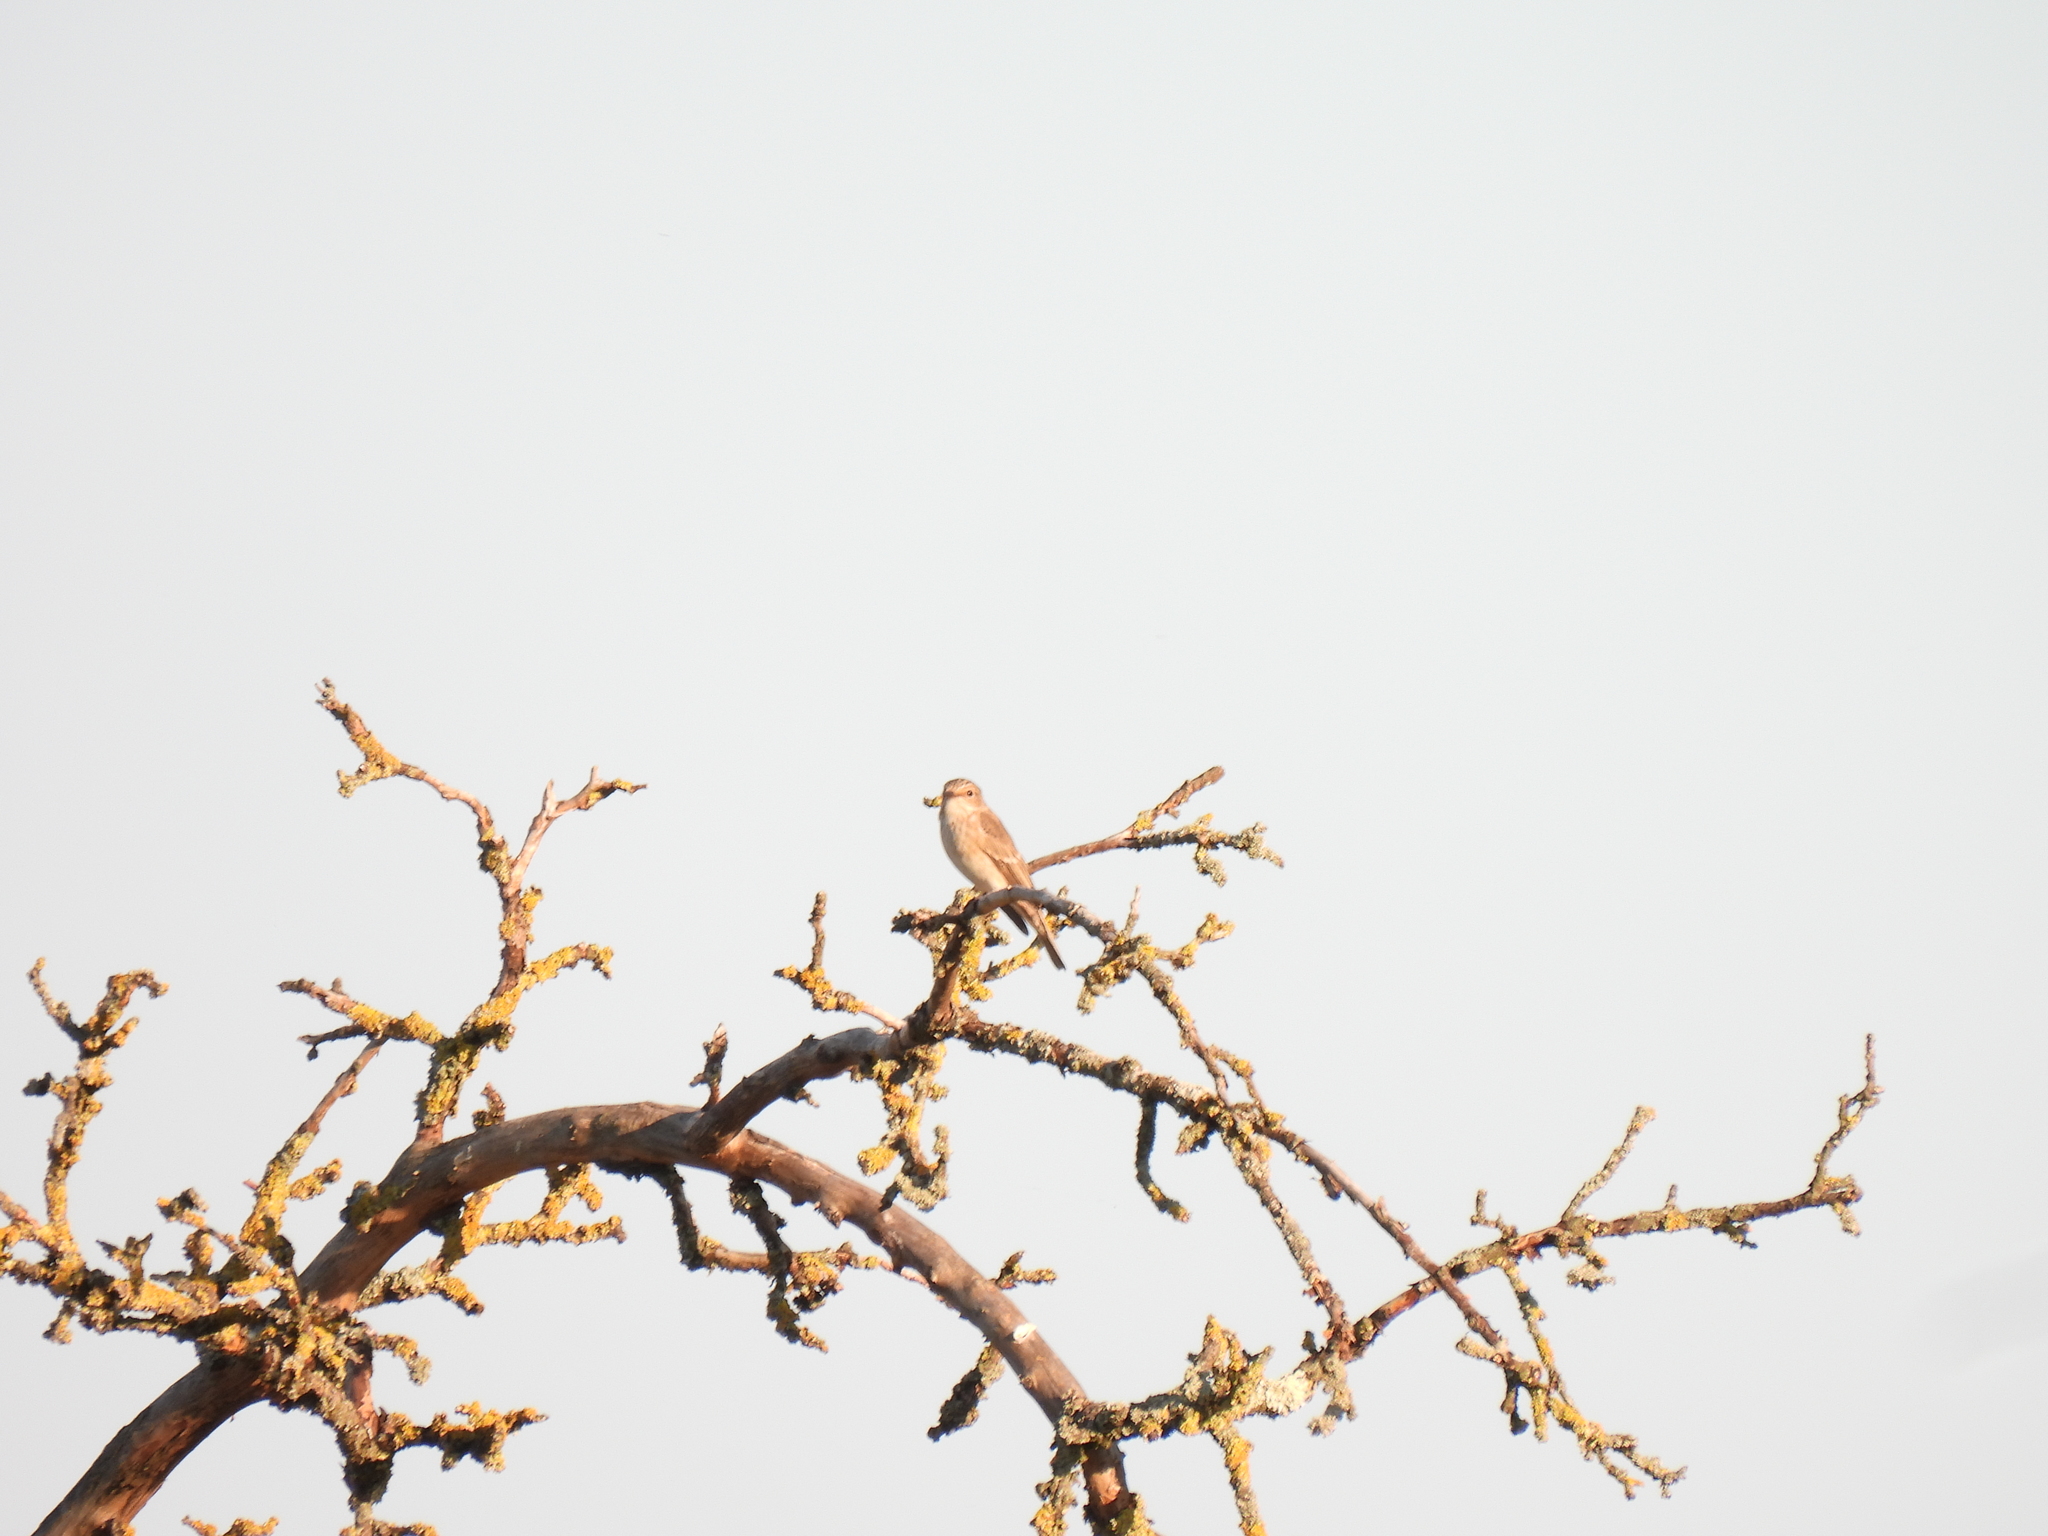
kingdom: Animalia
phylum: Chordata
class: Aves
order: Passeriformes
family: Muscicapidae
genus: Muscicapa
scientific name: Muscicapa striata
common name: Spotted flycatcher
